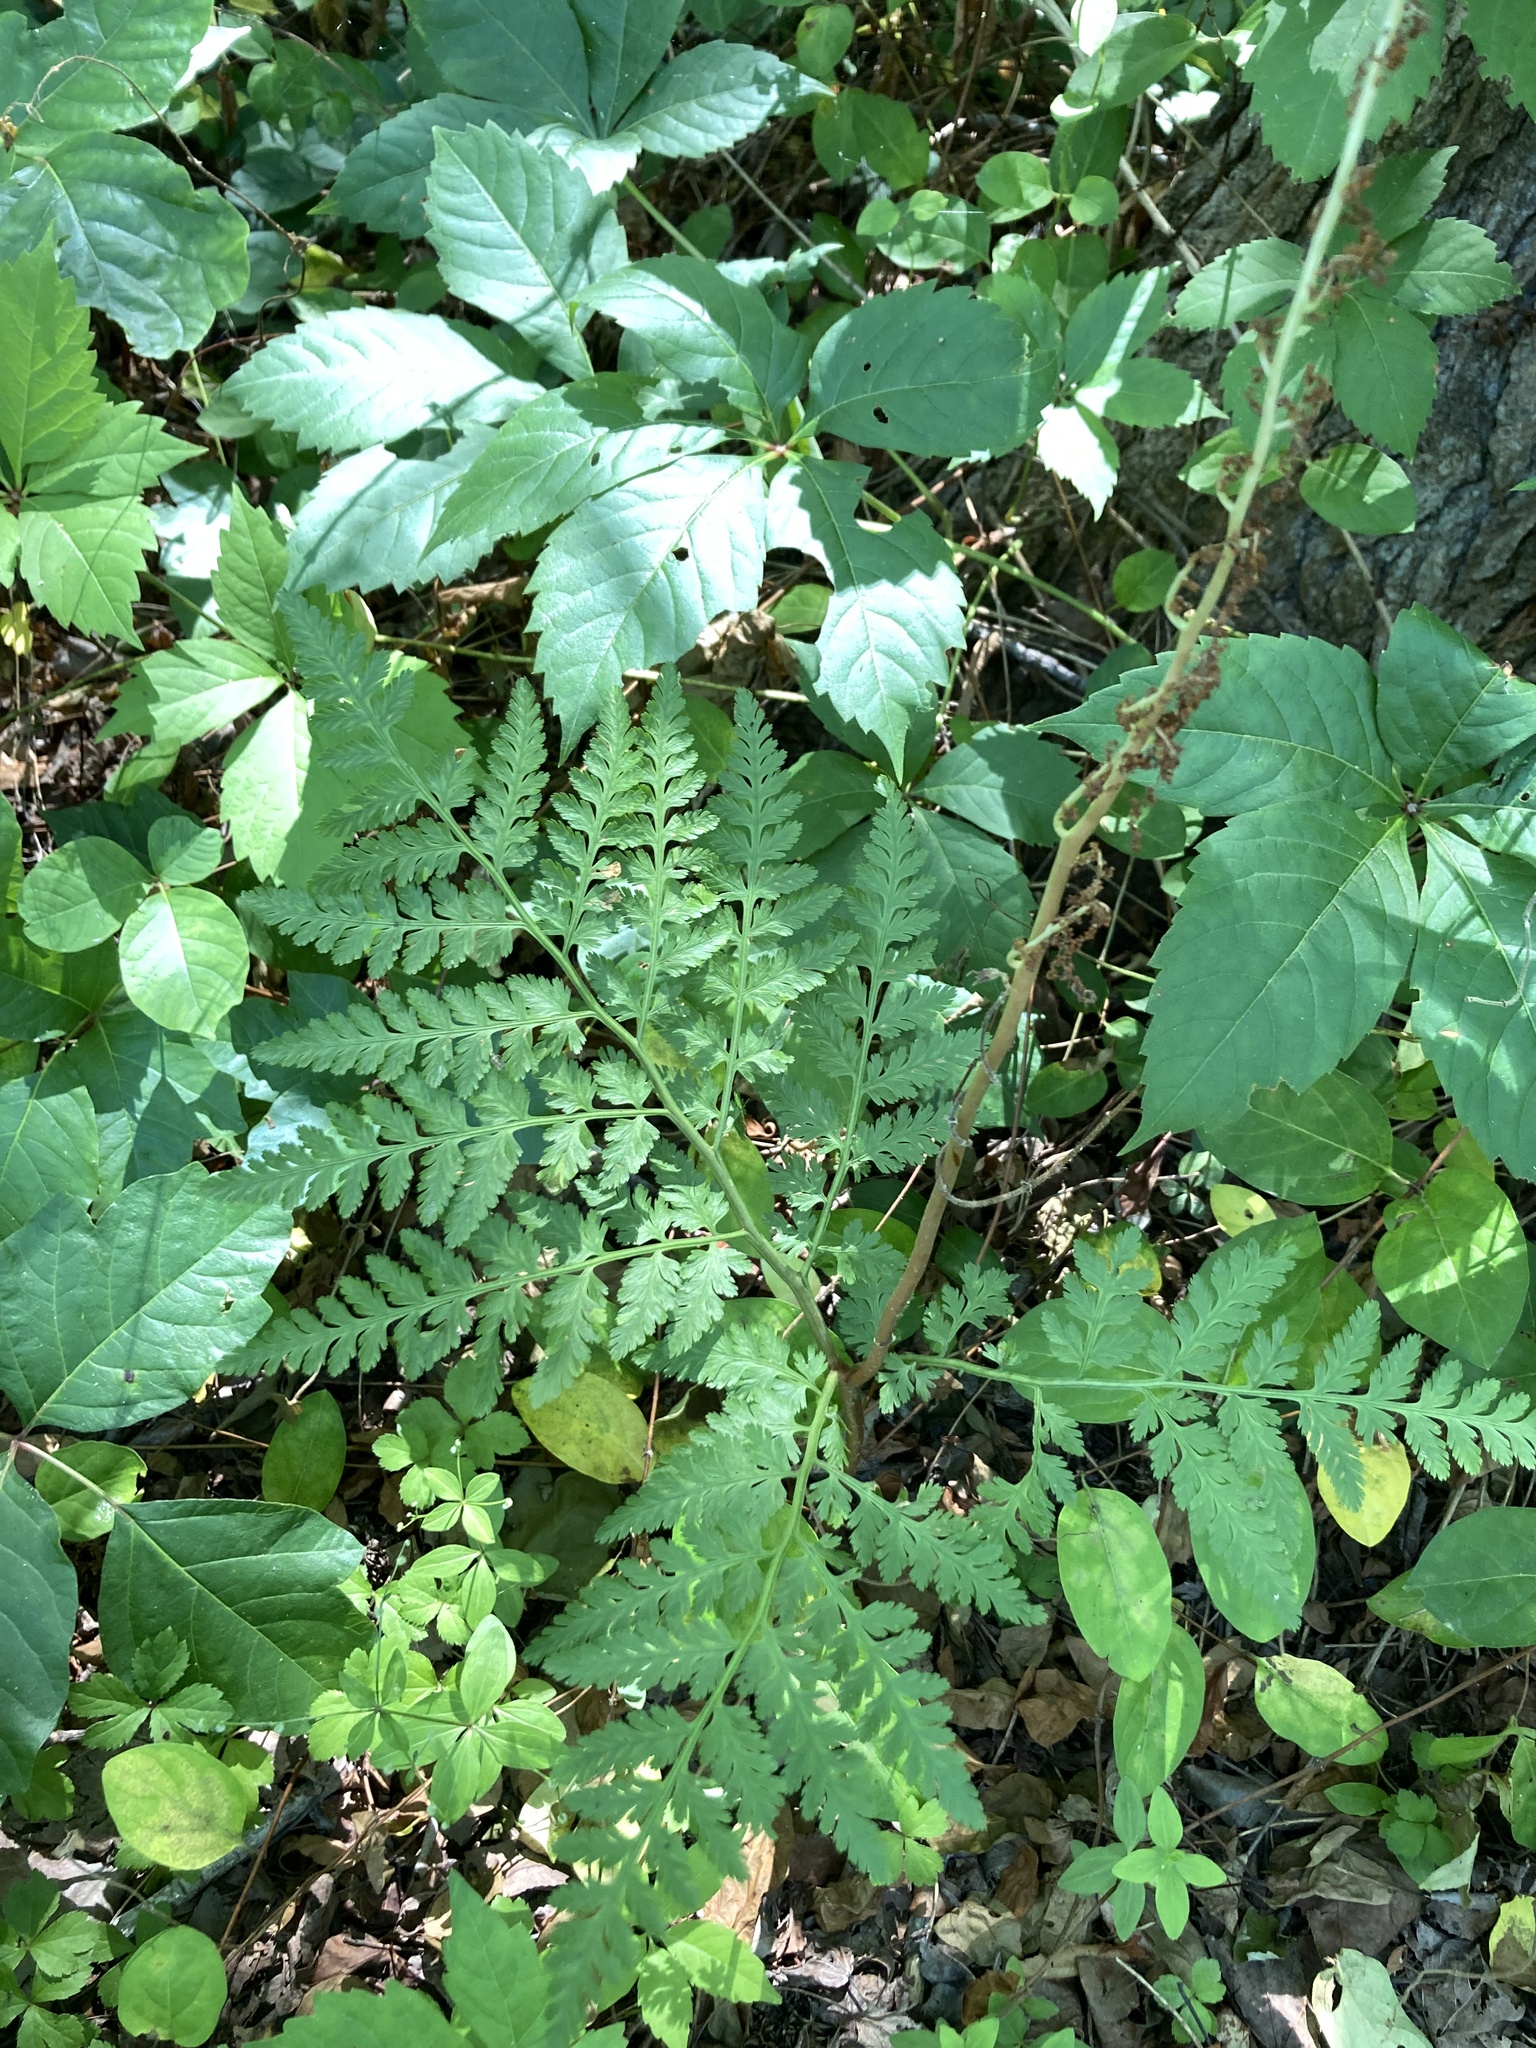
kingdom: Plantae
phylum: Tracheophyta
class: Polypodiopsida
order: Ophioglossales
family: Ophioglossaceae
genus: Botrypus
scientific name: Botrypus virginianus
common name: Common grapefern
